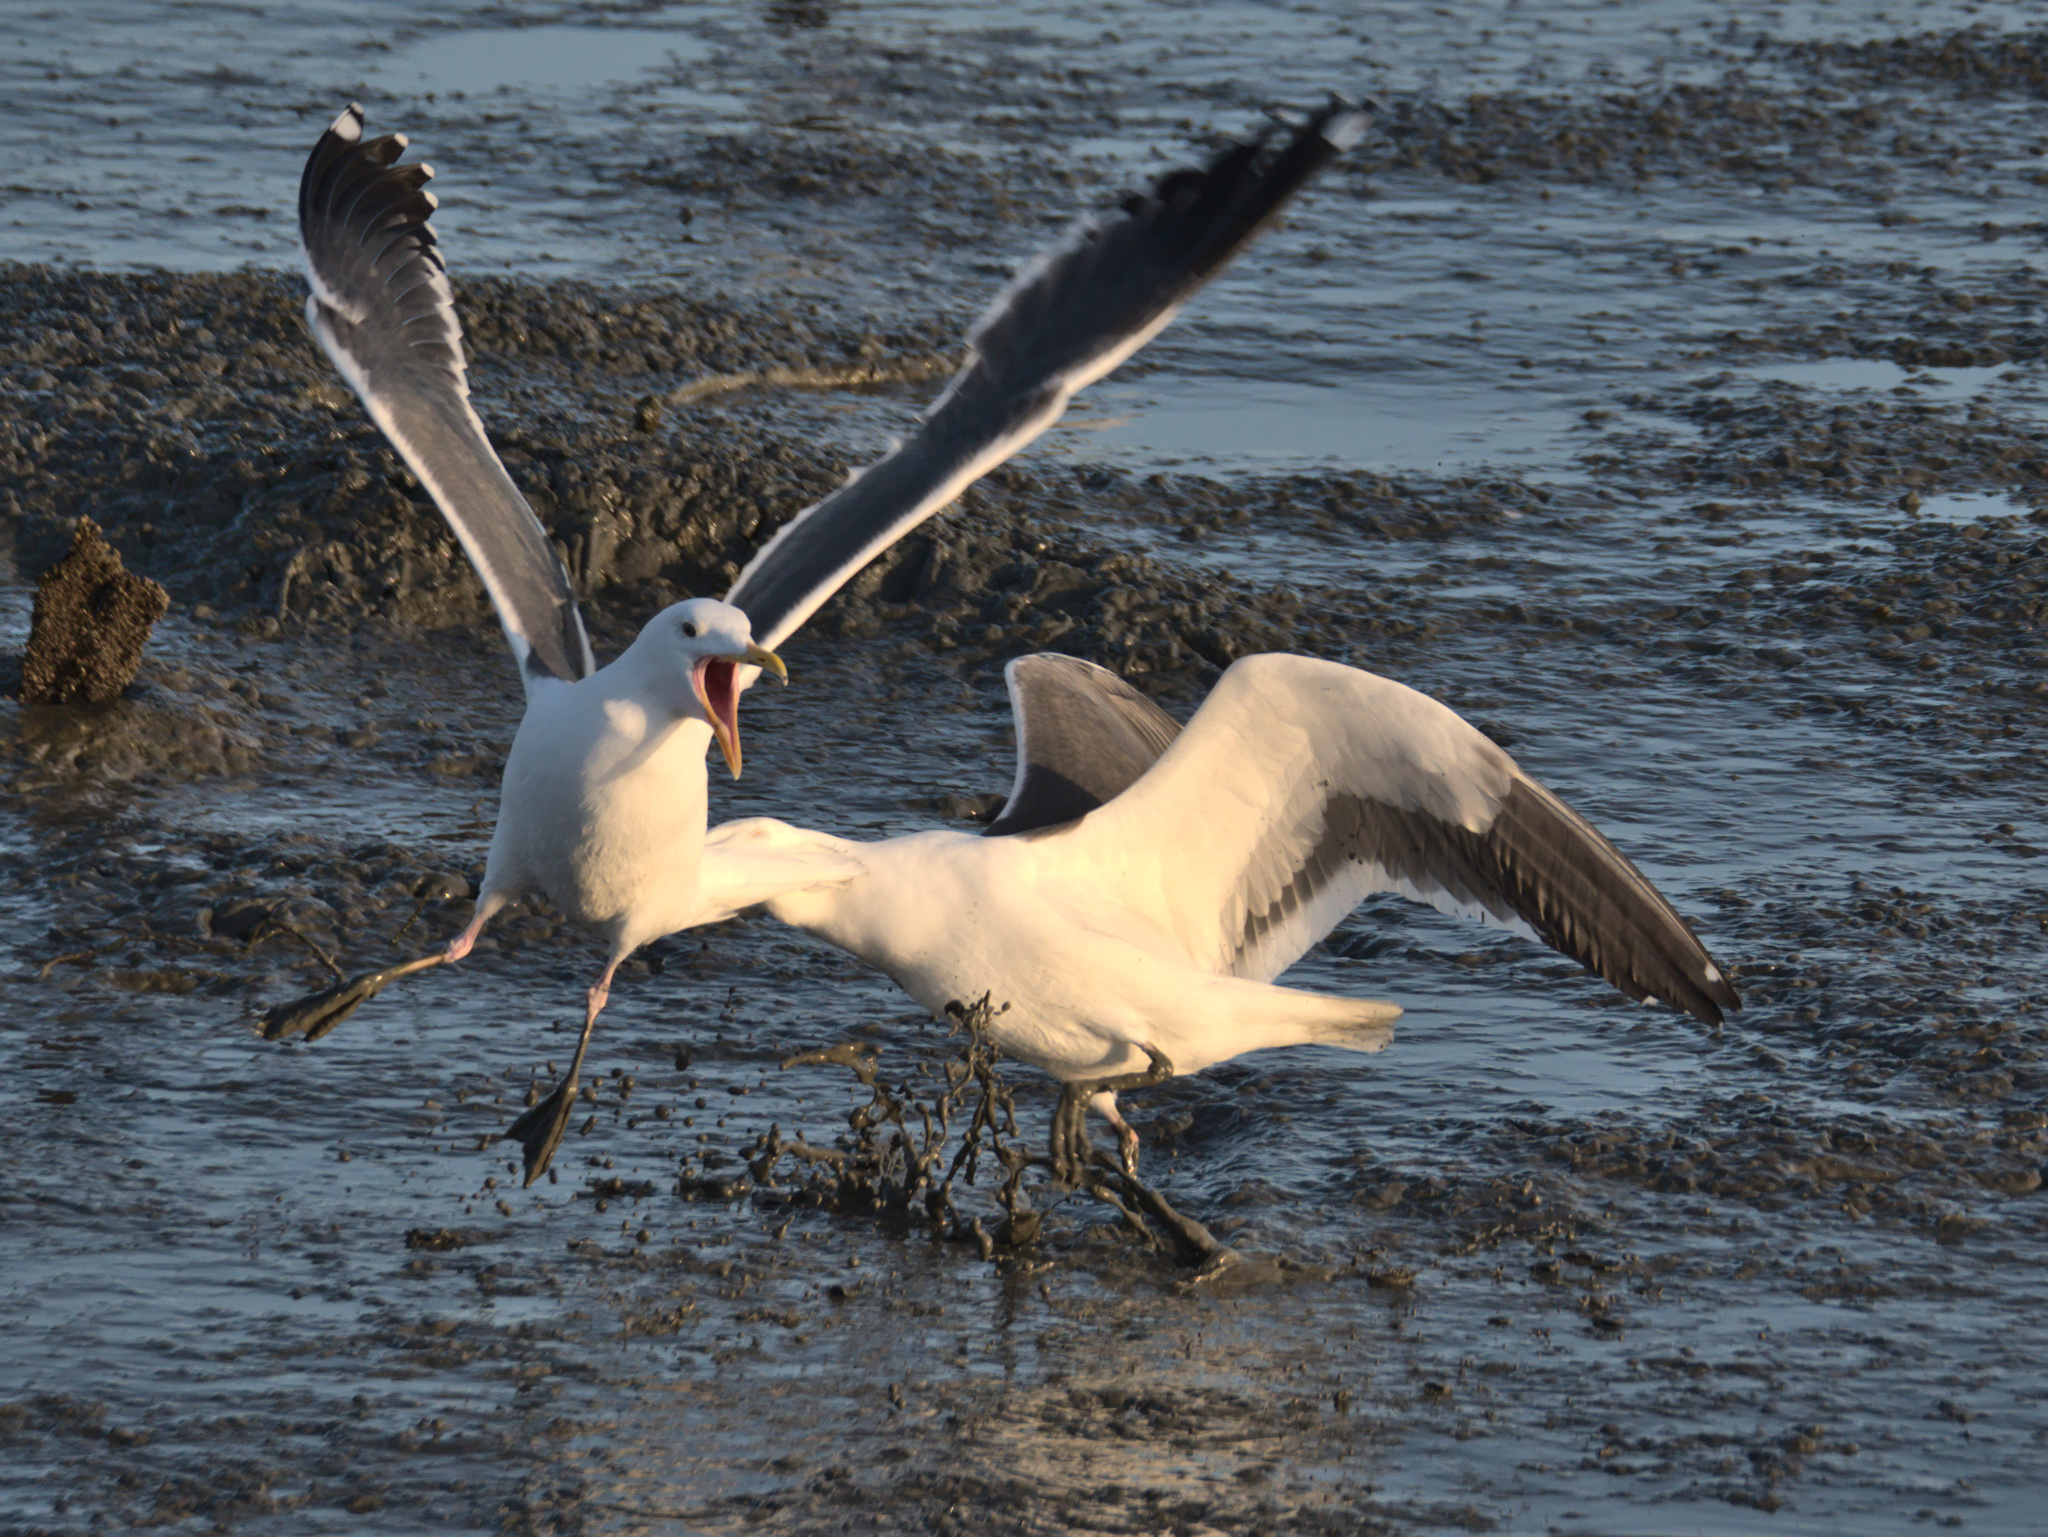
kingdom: Animalia
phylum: Chordata
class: Aves
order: Charadriiformes
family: Laridae
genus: Larus
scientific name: Larus occidentalis
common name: Western gull
